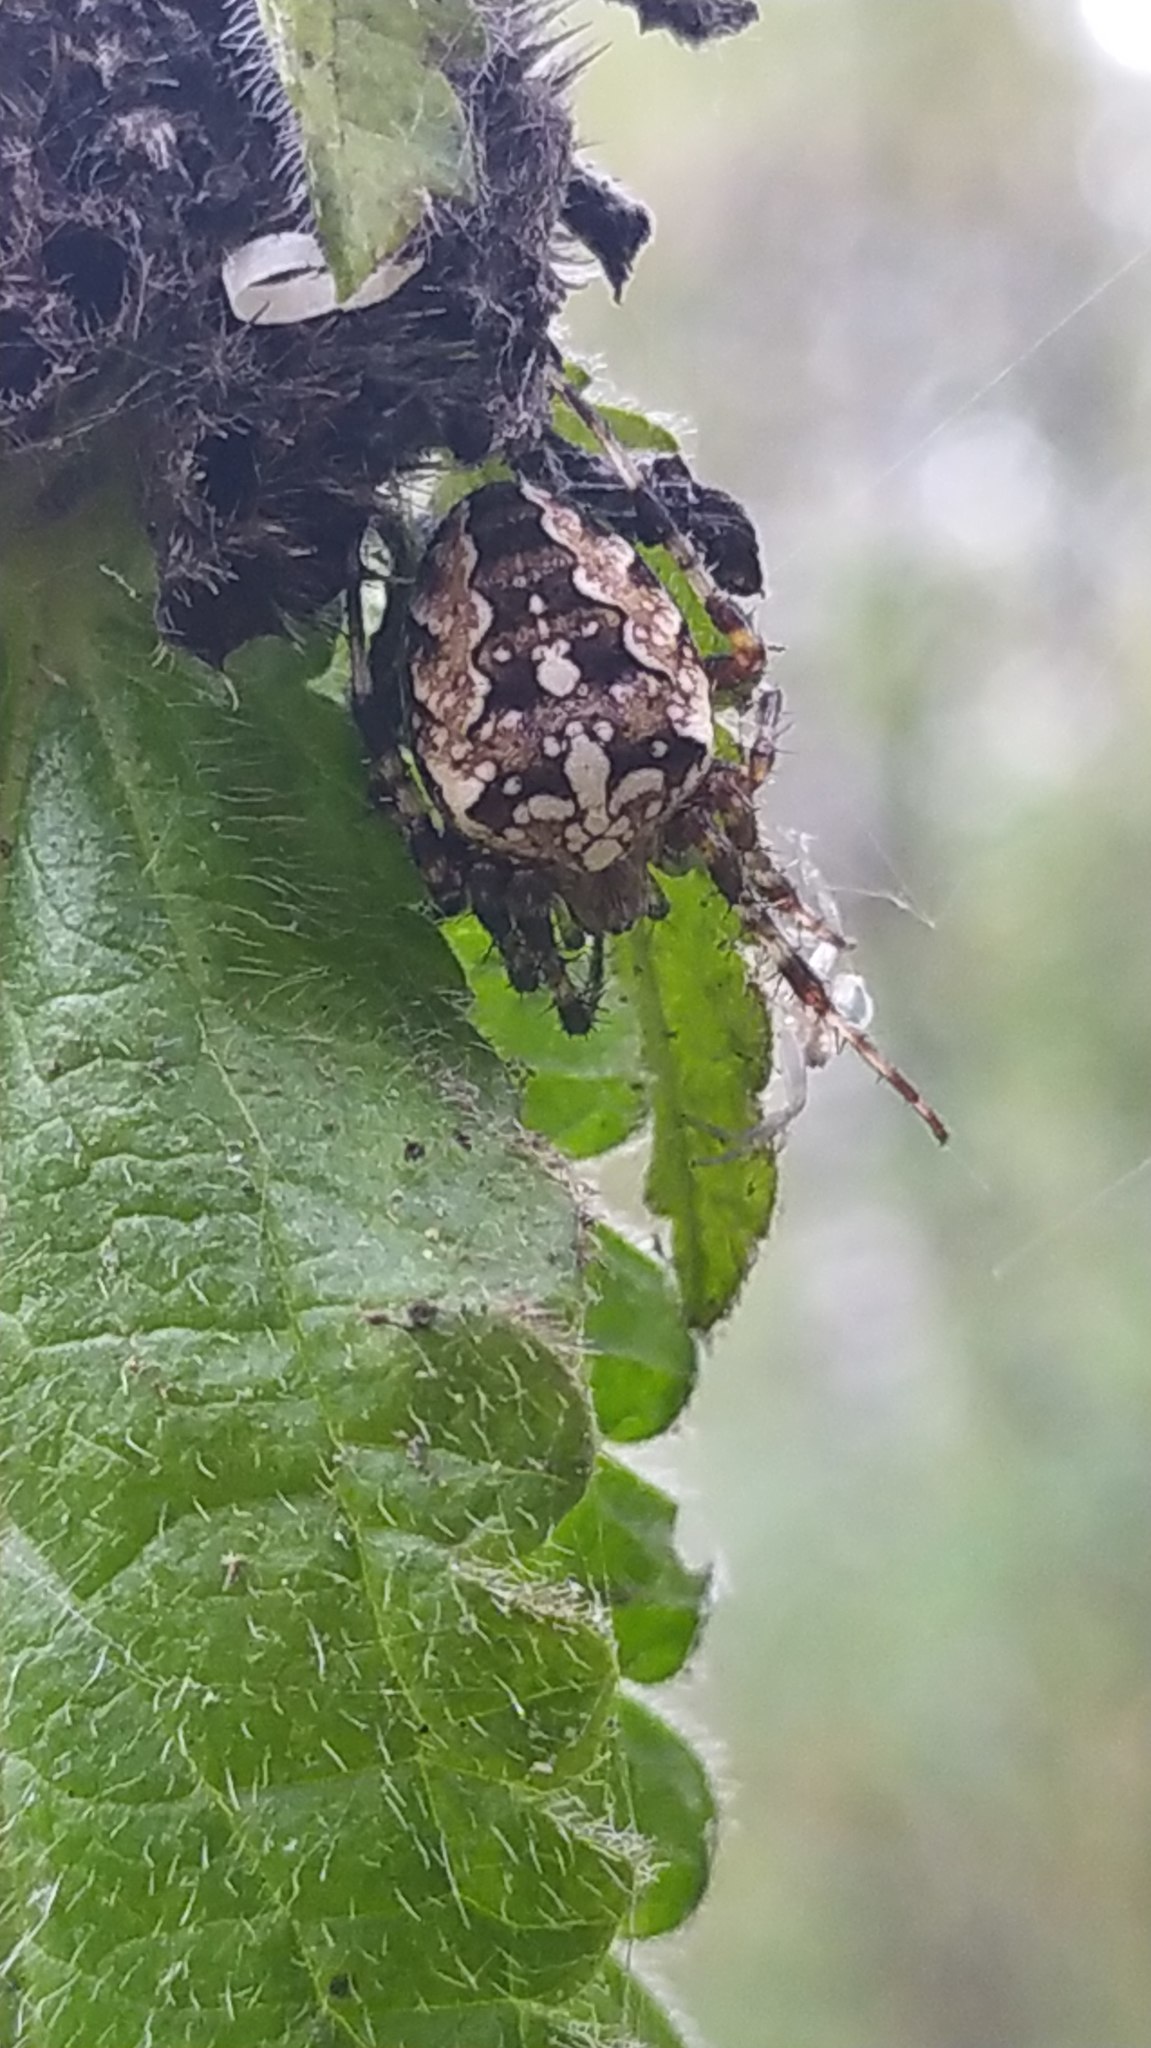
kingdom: Animalia
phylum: Arthropoda
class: Arachnida
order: Araneae
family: Araneidae
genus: Araneus
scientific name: Araneus diadematus
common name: Cross orbweaver
